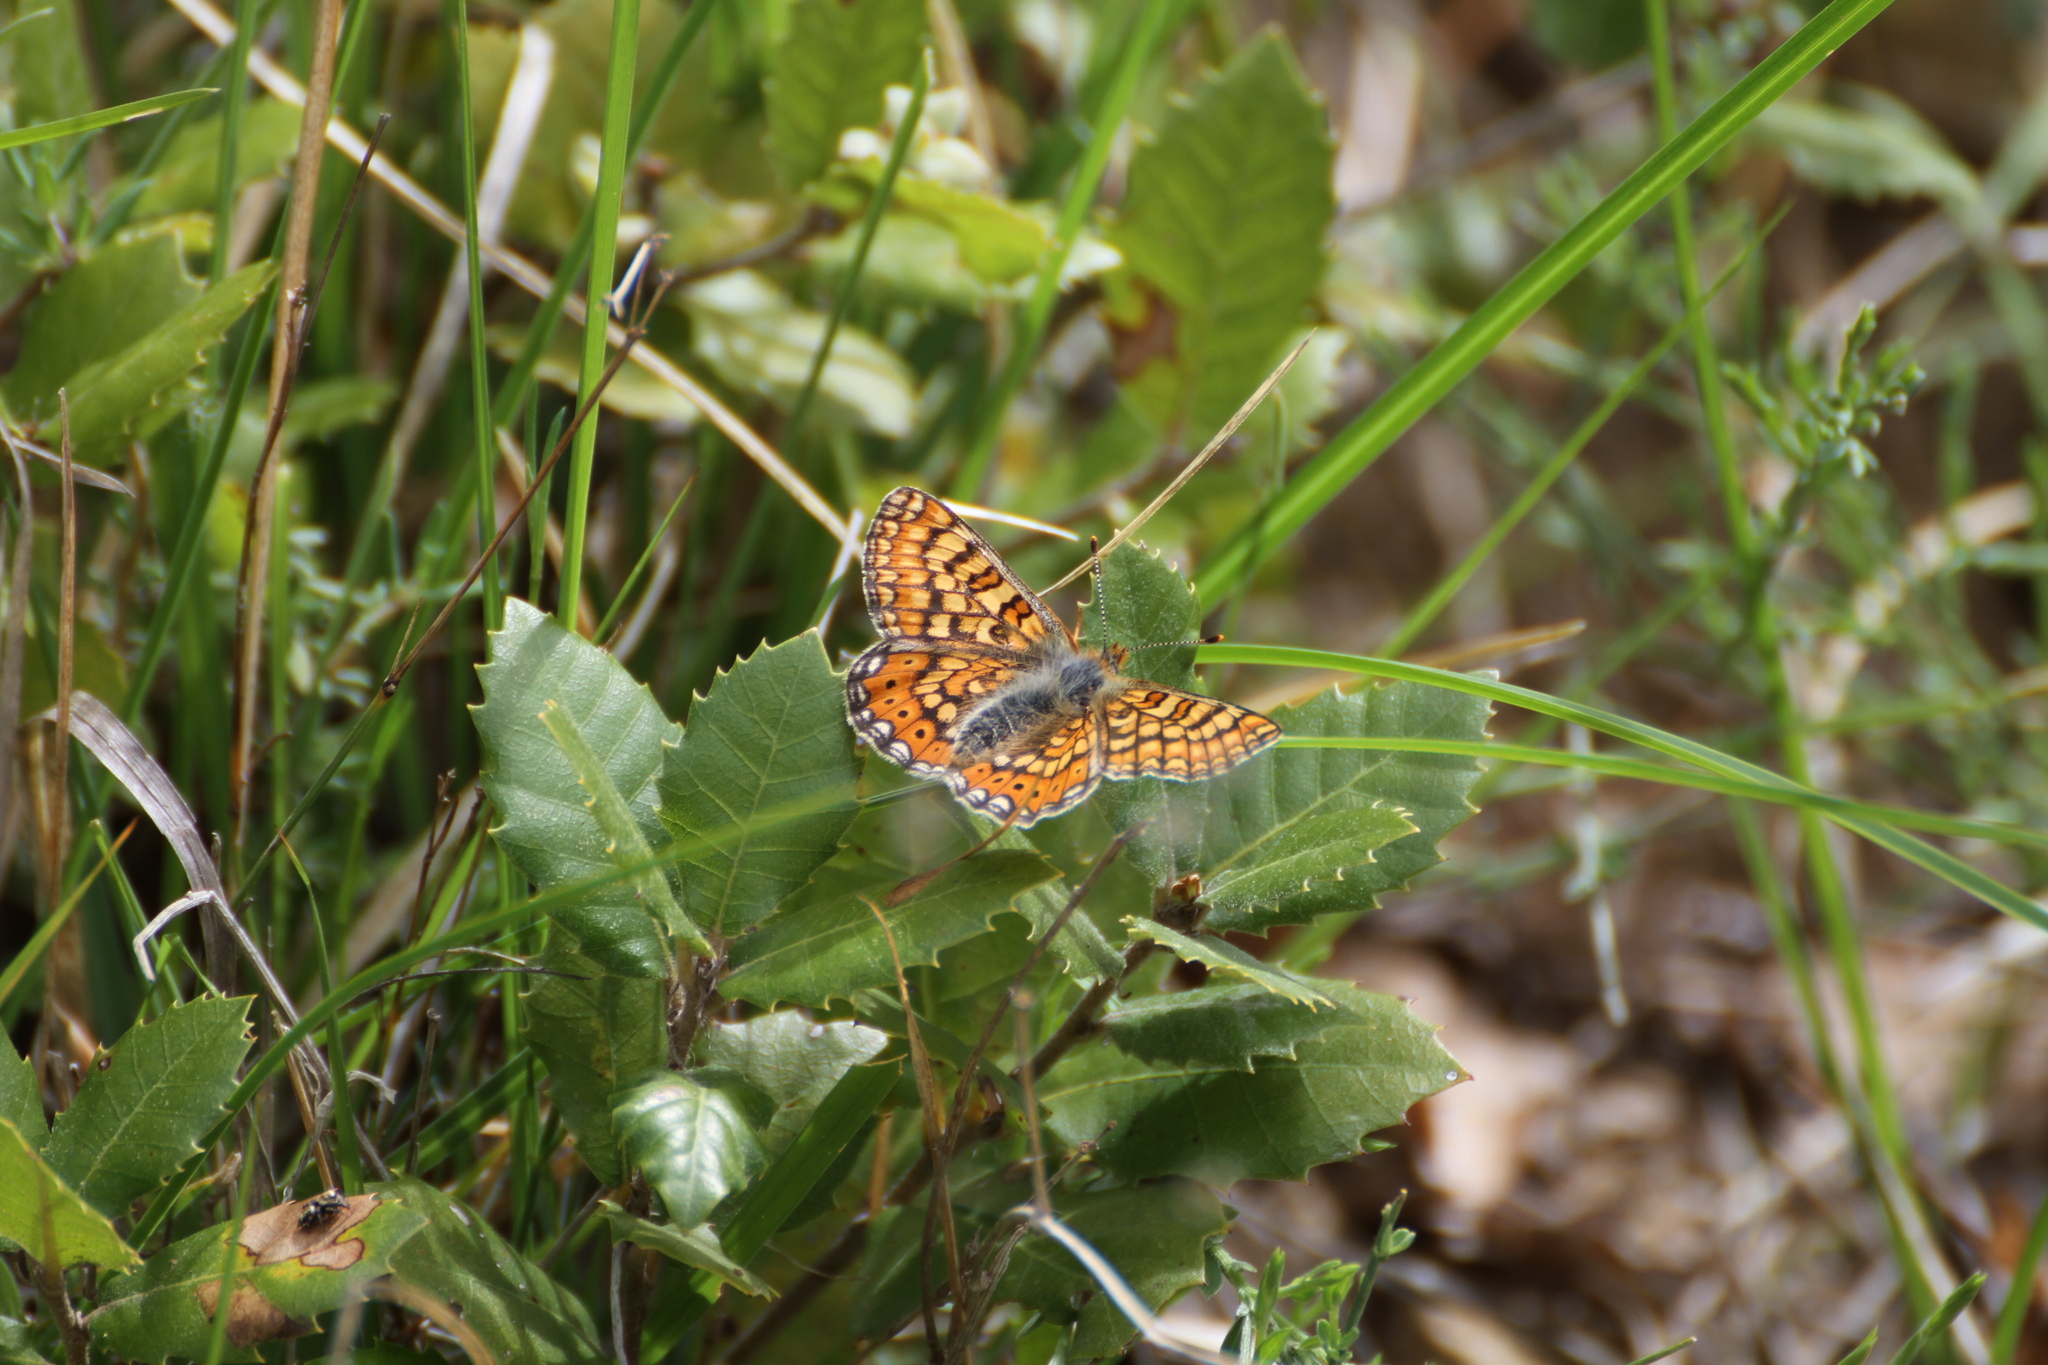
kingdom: Animalia
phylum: Arthropoda
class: Insecta
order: Lepidoptera
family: Nymphalidae
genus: Euphydryas
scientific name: Euphydryas aurinia
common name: Marsh fritillary
